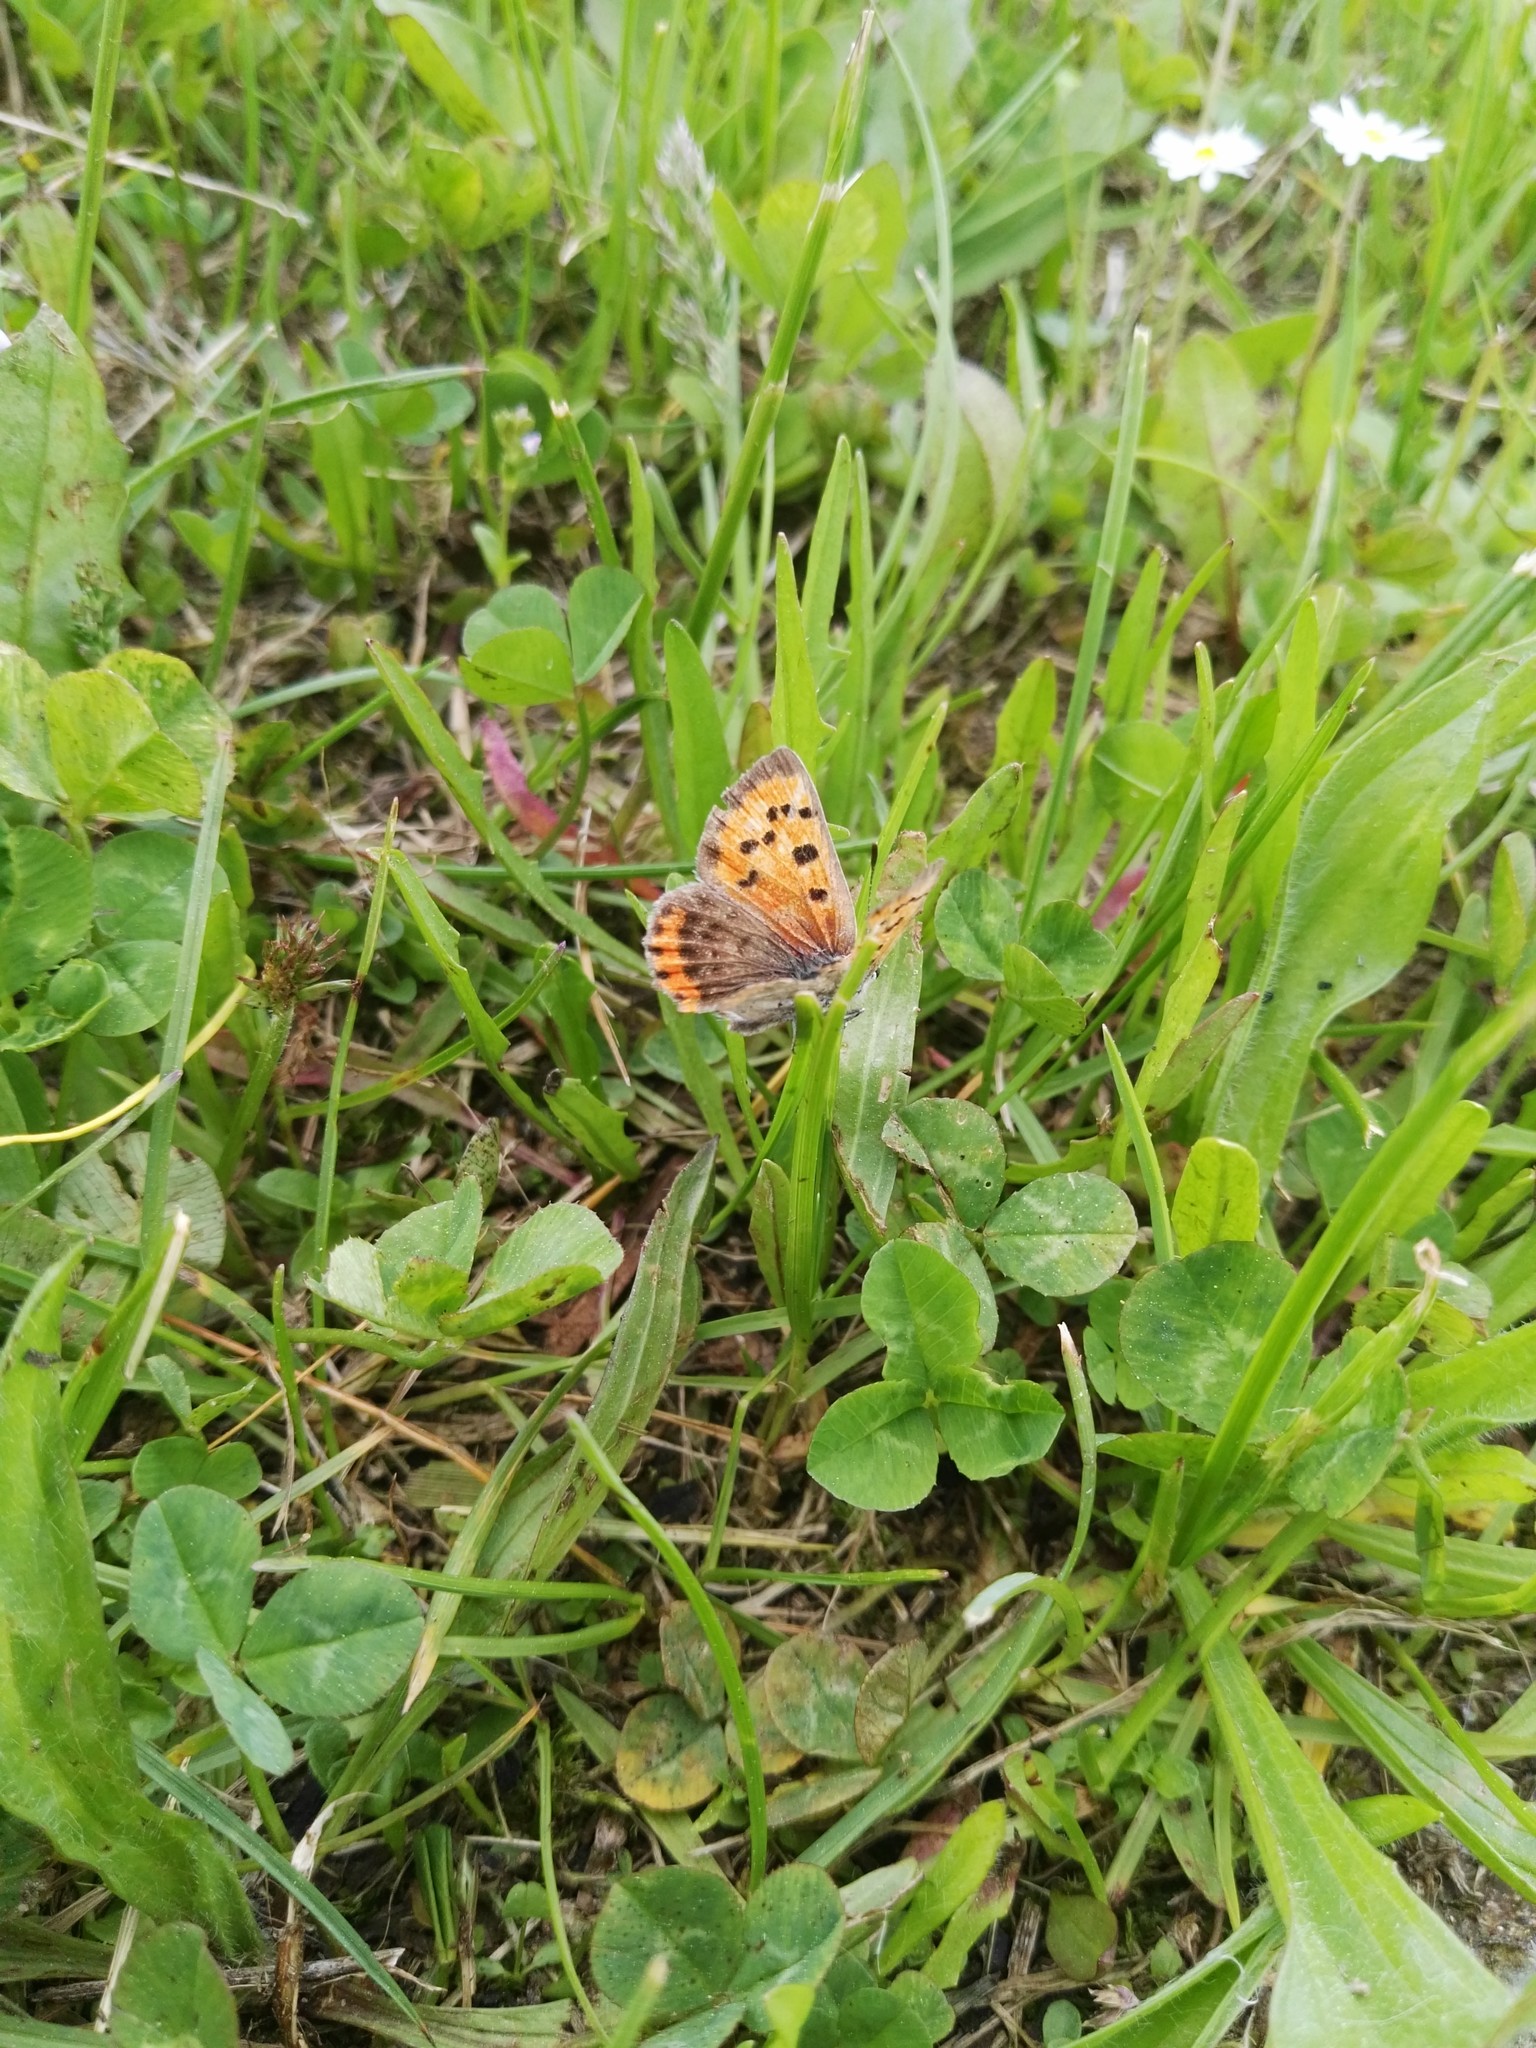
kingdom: Animalia
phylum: Arthropoda
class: Insecta
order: Lepidoptera
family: Lycaenidae
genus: Lycaena
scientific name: Lycaena phlaeas
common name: Small copper
